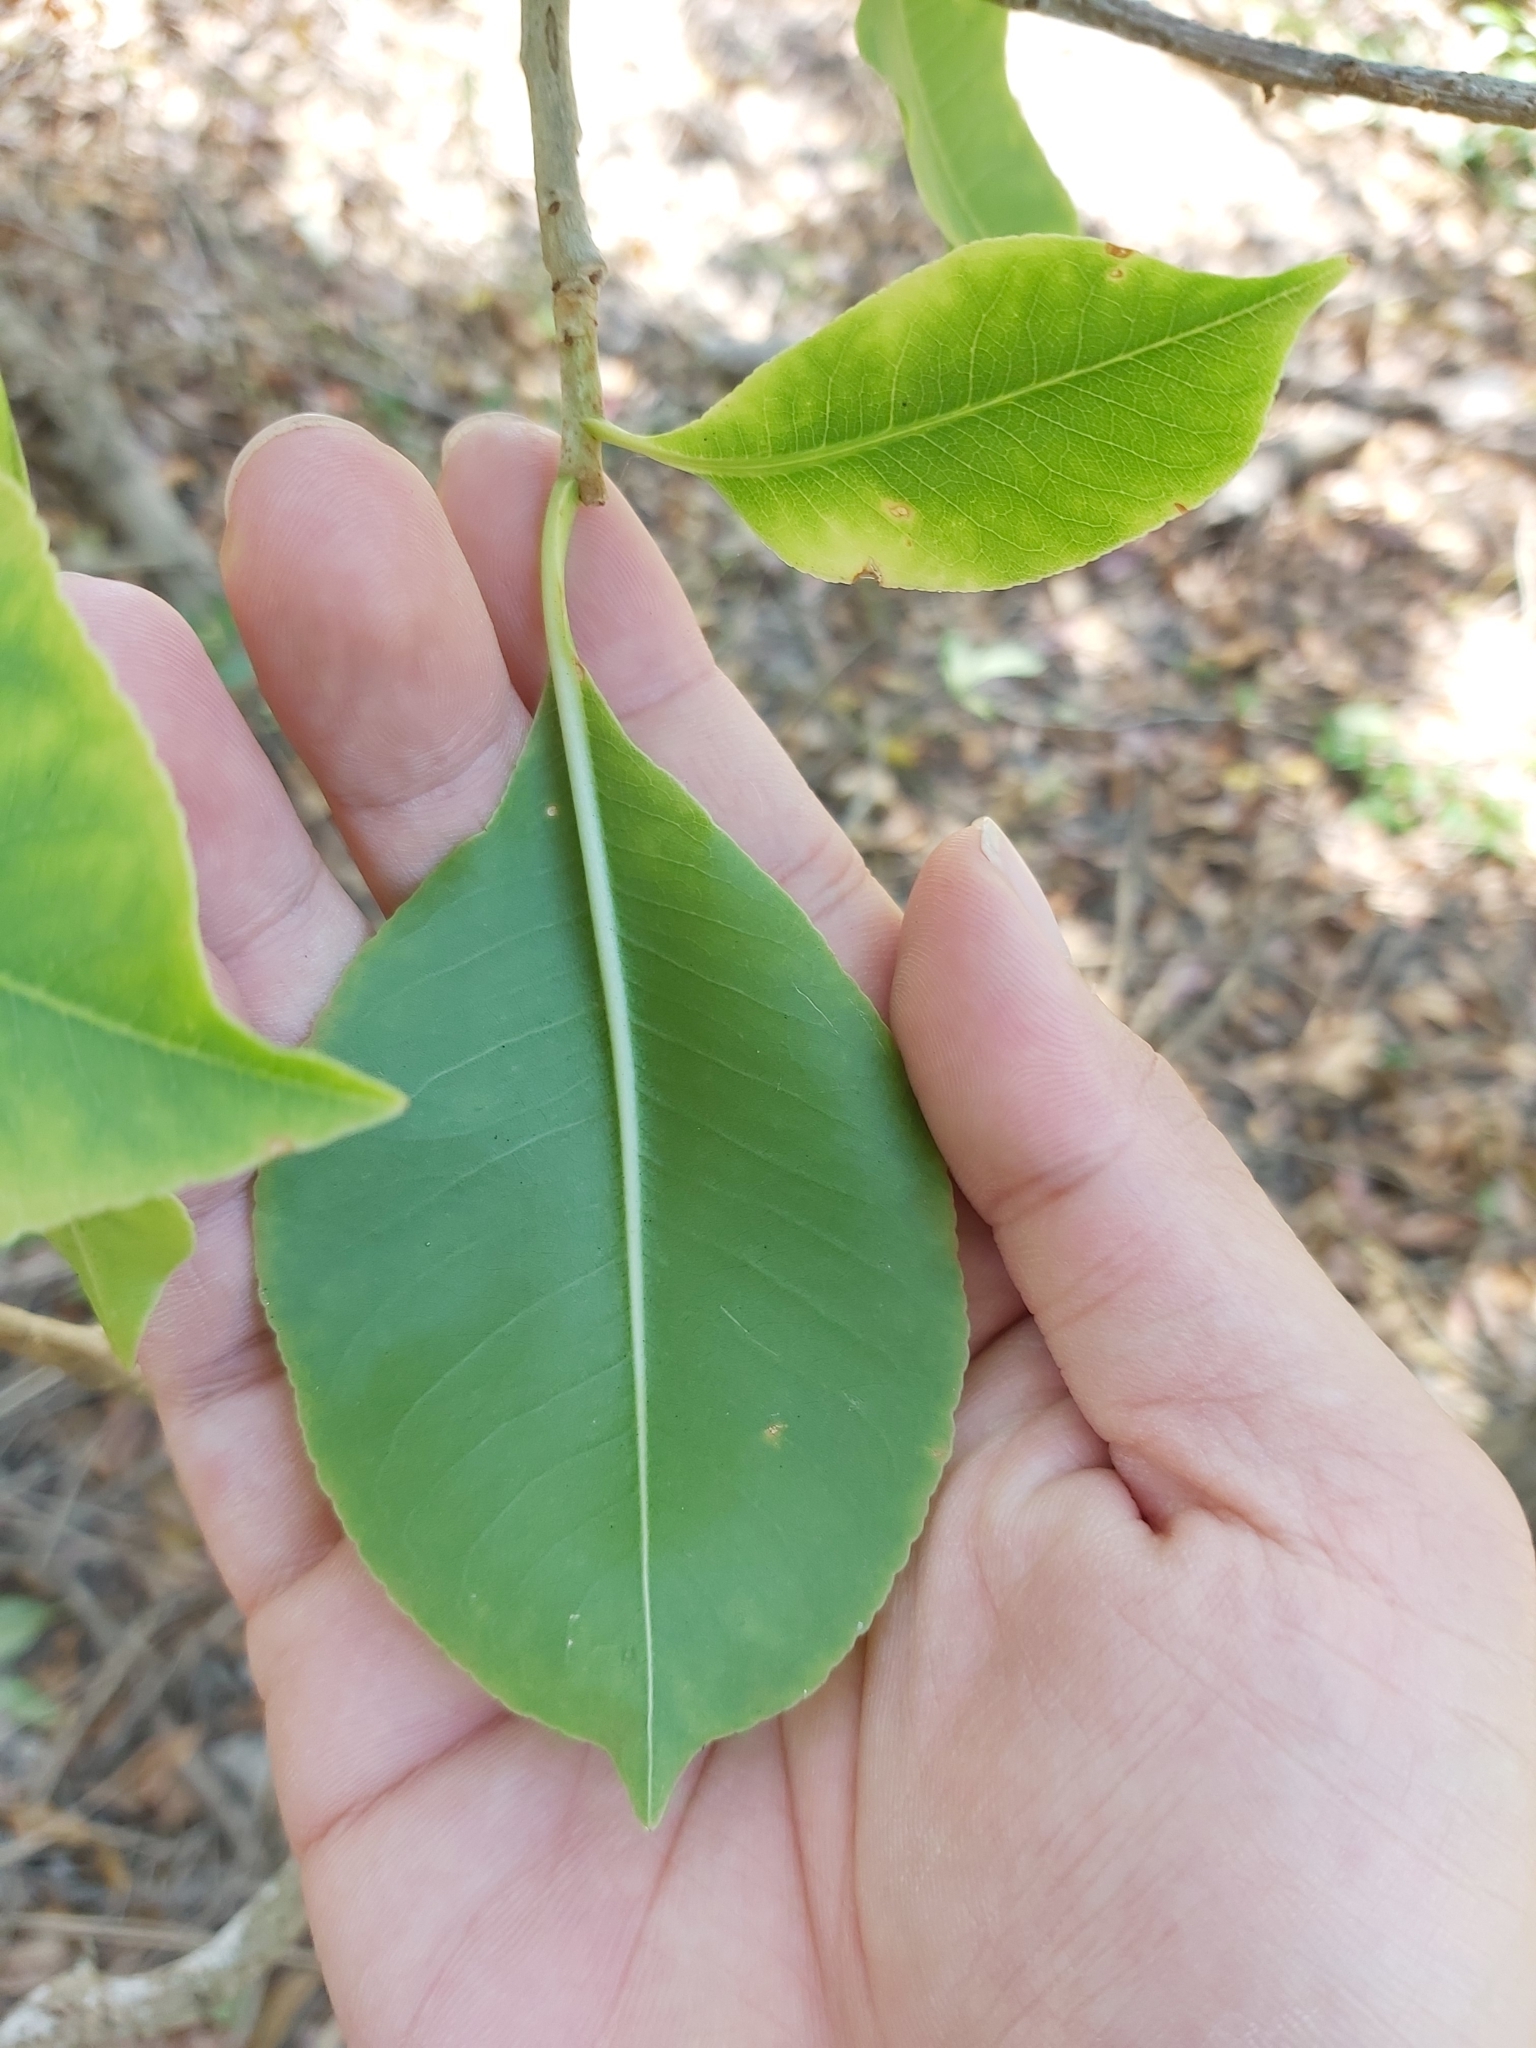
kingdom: Plantae
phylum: Tracheophyta
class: Magnoliopsida
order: Ericales
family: Lecythidaceae
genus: Planchonia
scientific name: Planchonia careya
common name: Cockatoo-apple
